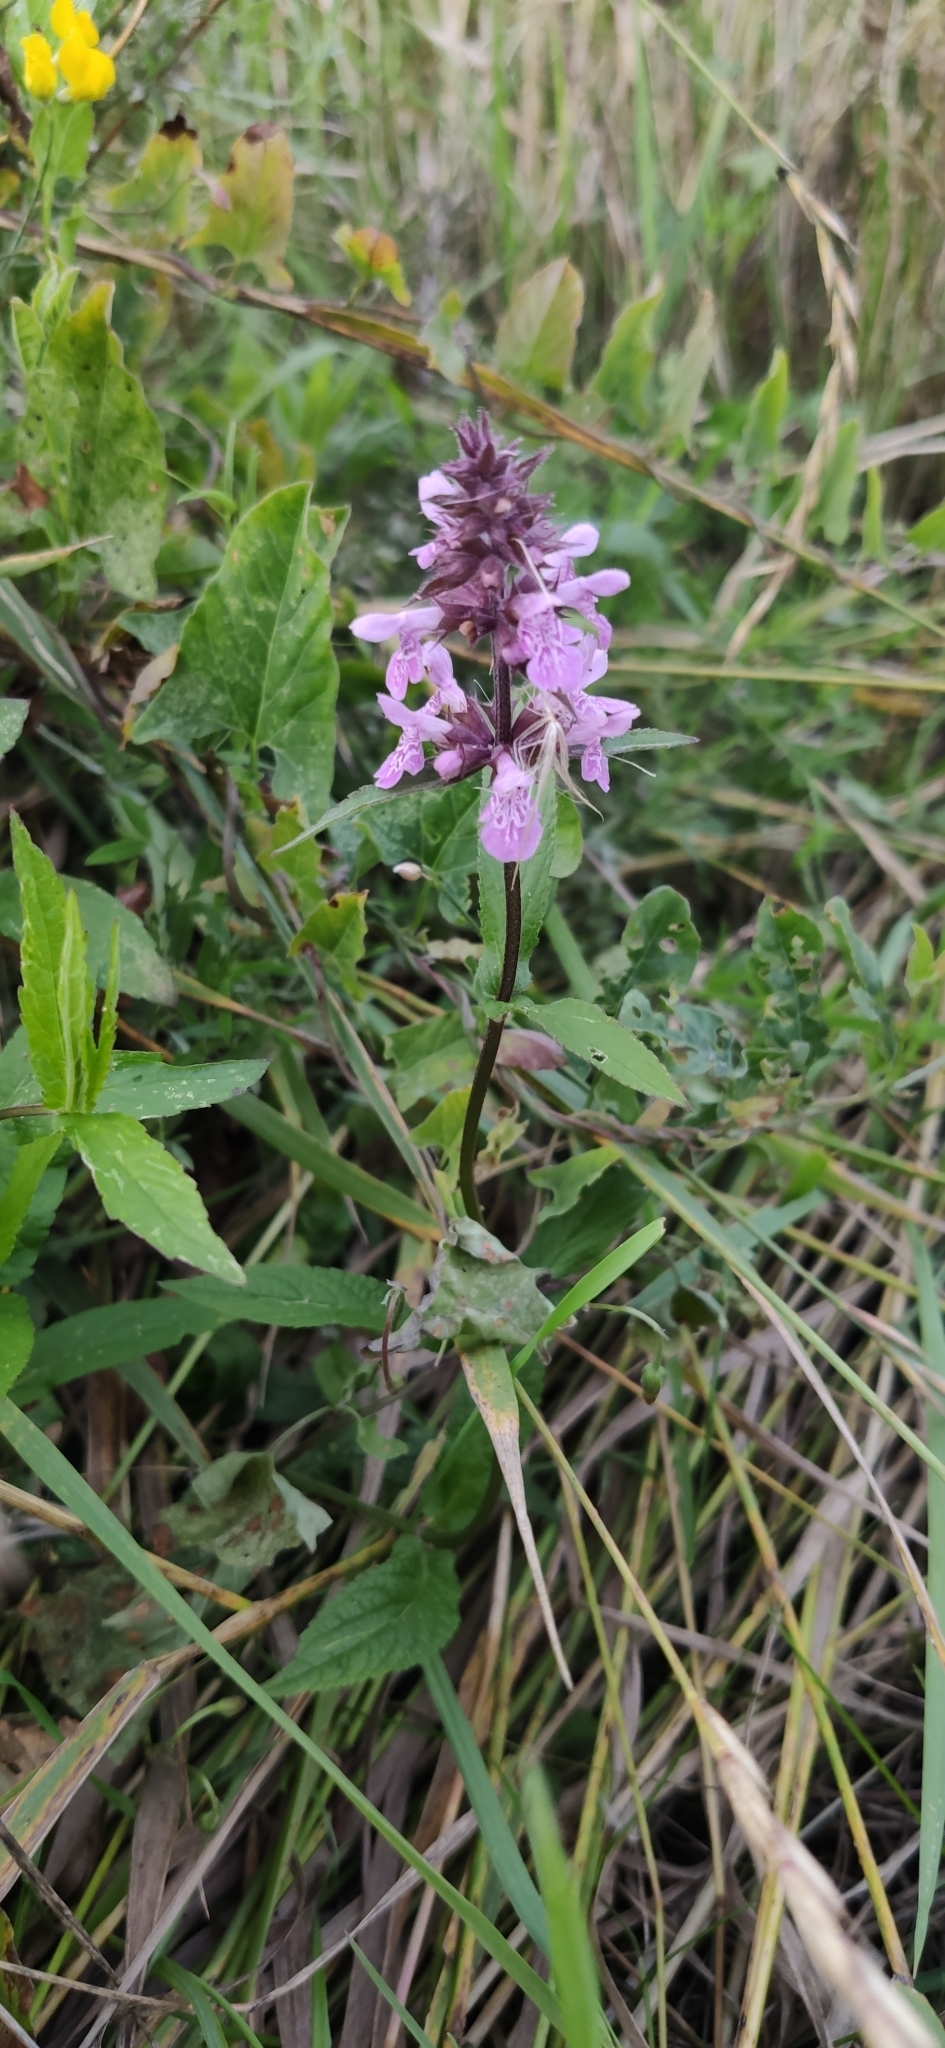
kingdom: Plantae
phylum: Tracheophyta
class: Magnoliopsida
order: Lamiales
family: Lamiaceae
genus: Stachys
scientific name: Stachys palustris
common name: Marsh woundwort
